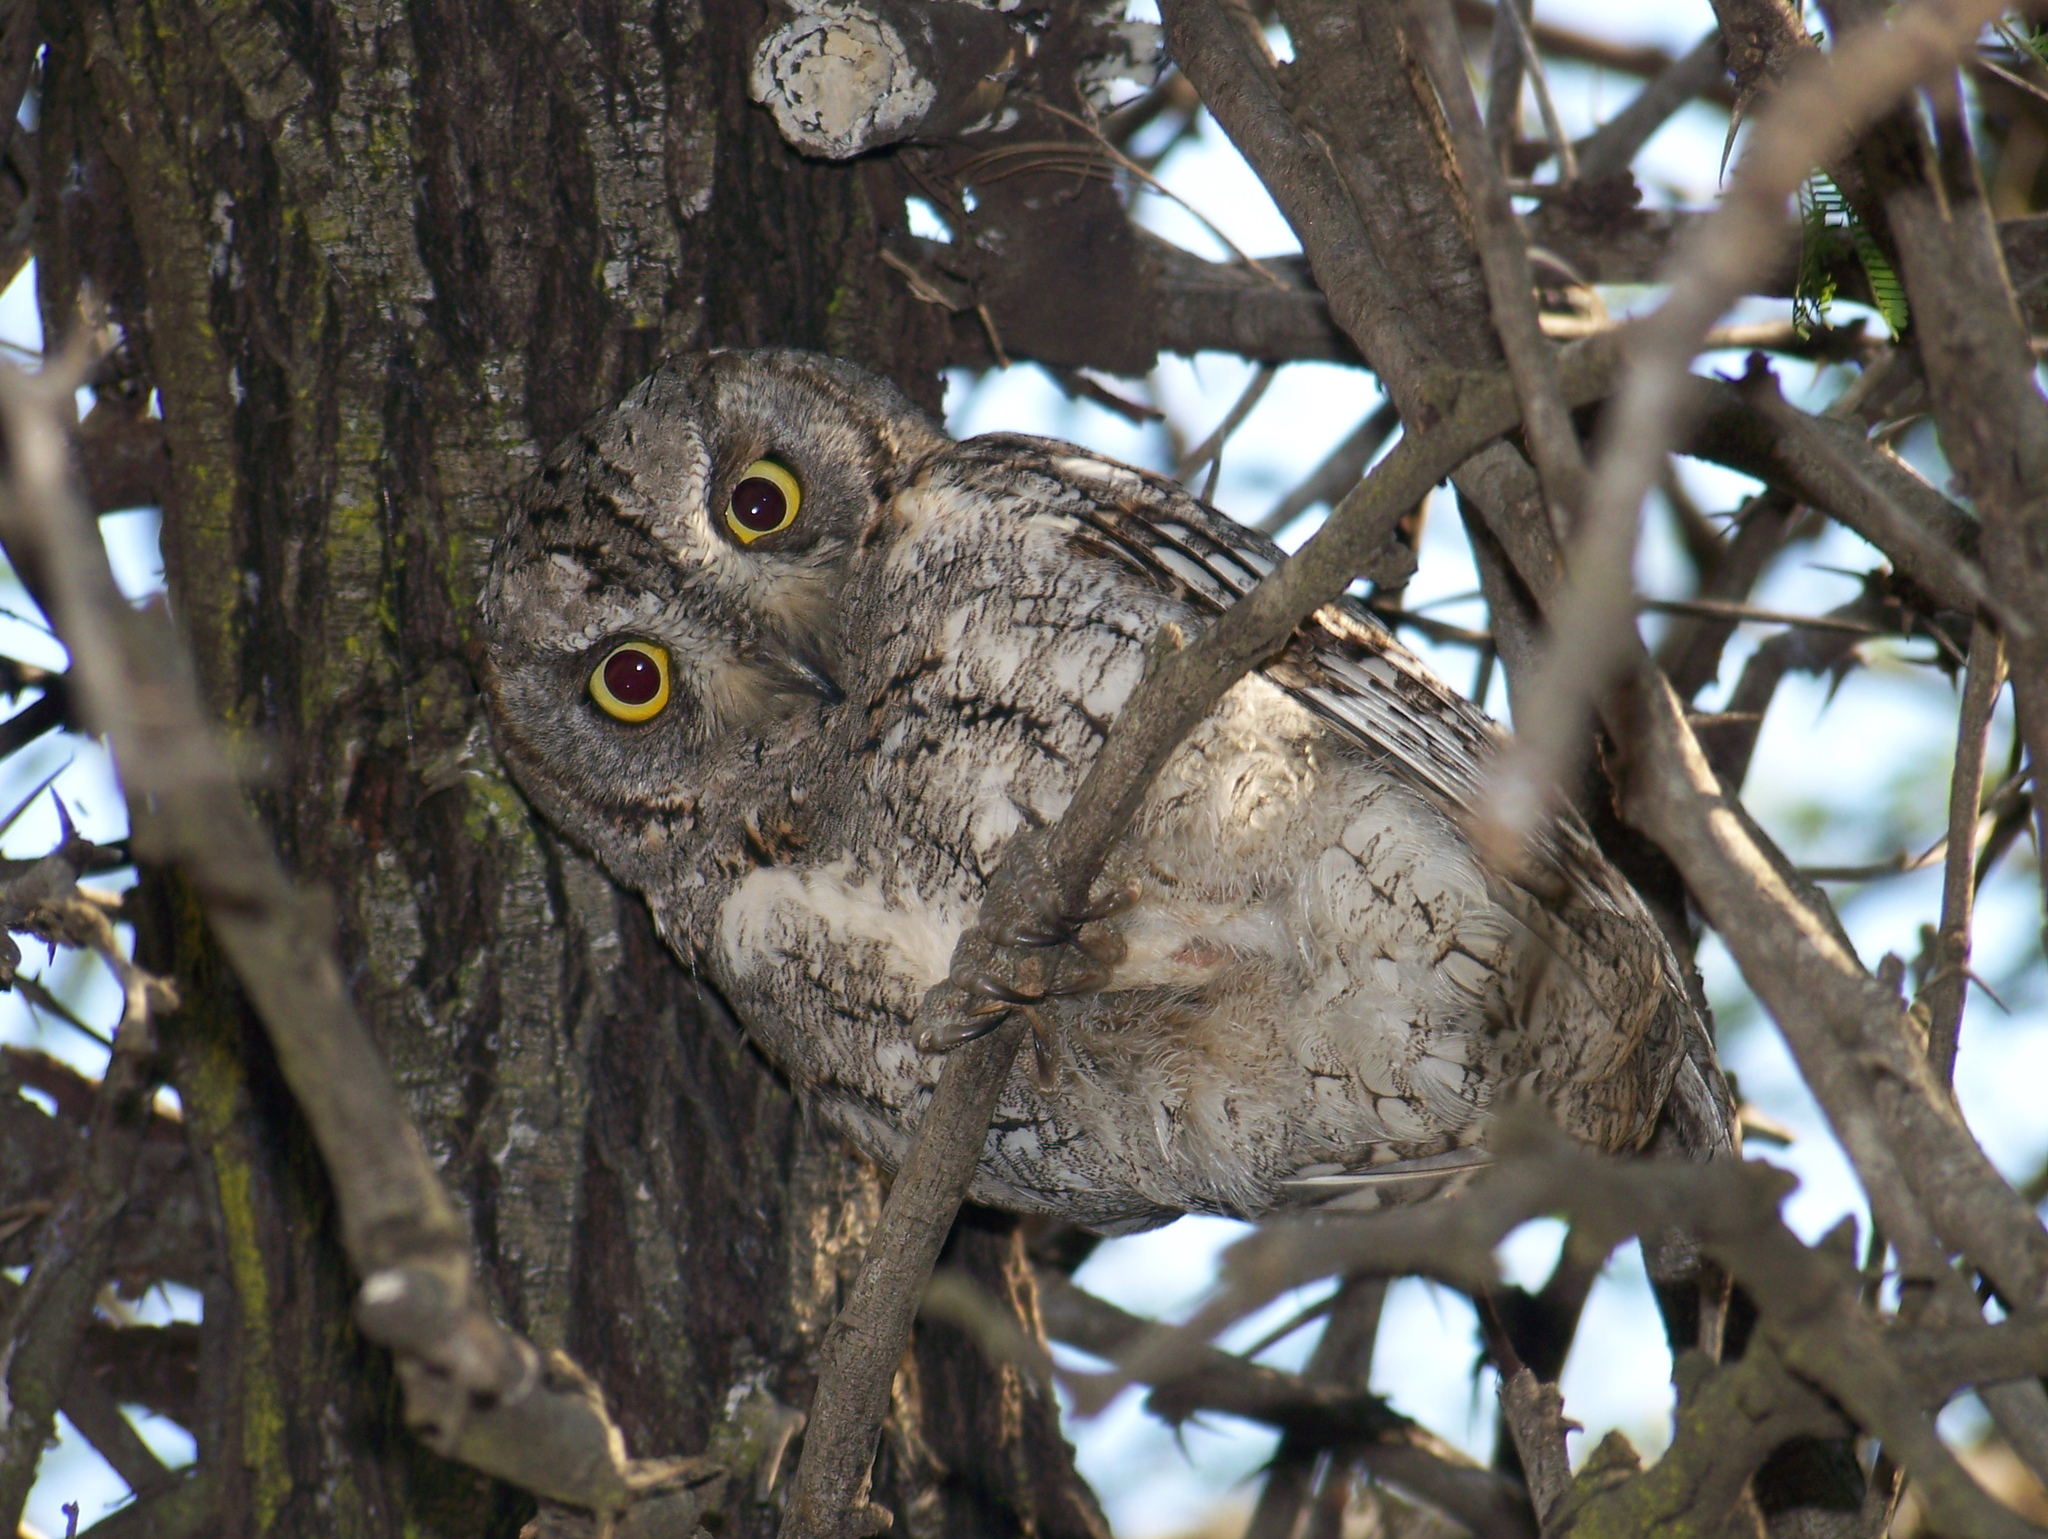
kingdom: Animalia
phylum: Chordata
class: Aves
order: Strigiformes
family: Strigidae
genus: Otus
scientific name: Otus senegalensis
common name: African scops owl
